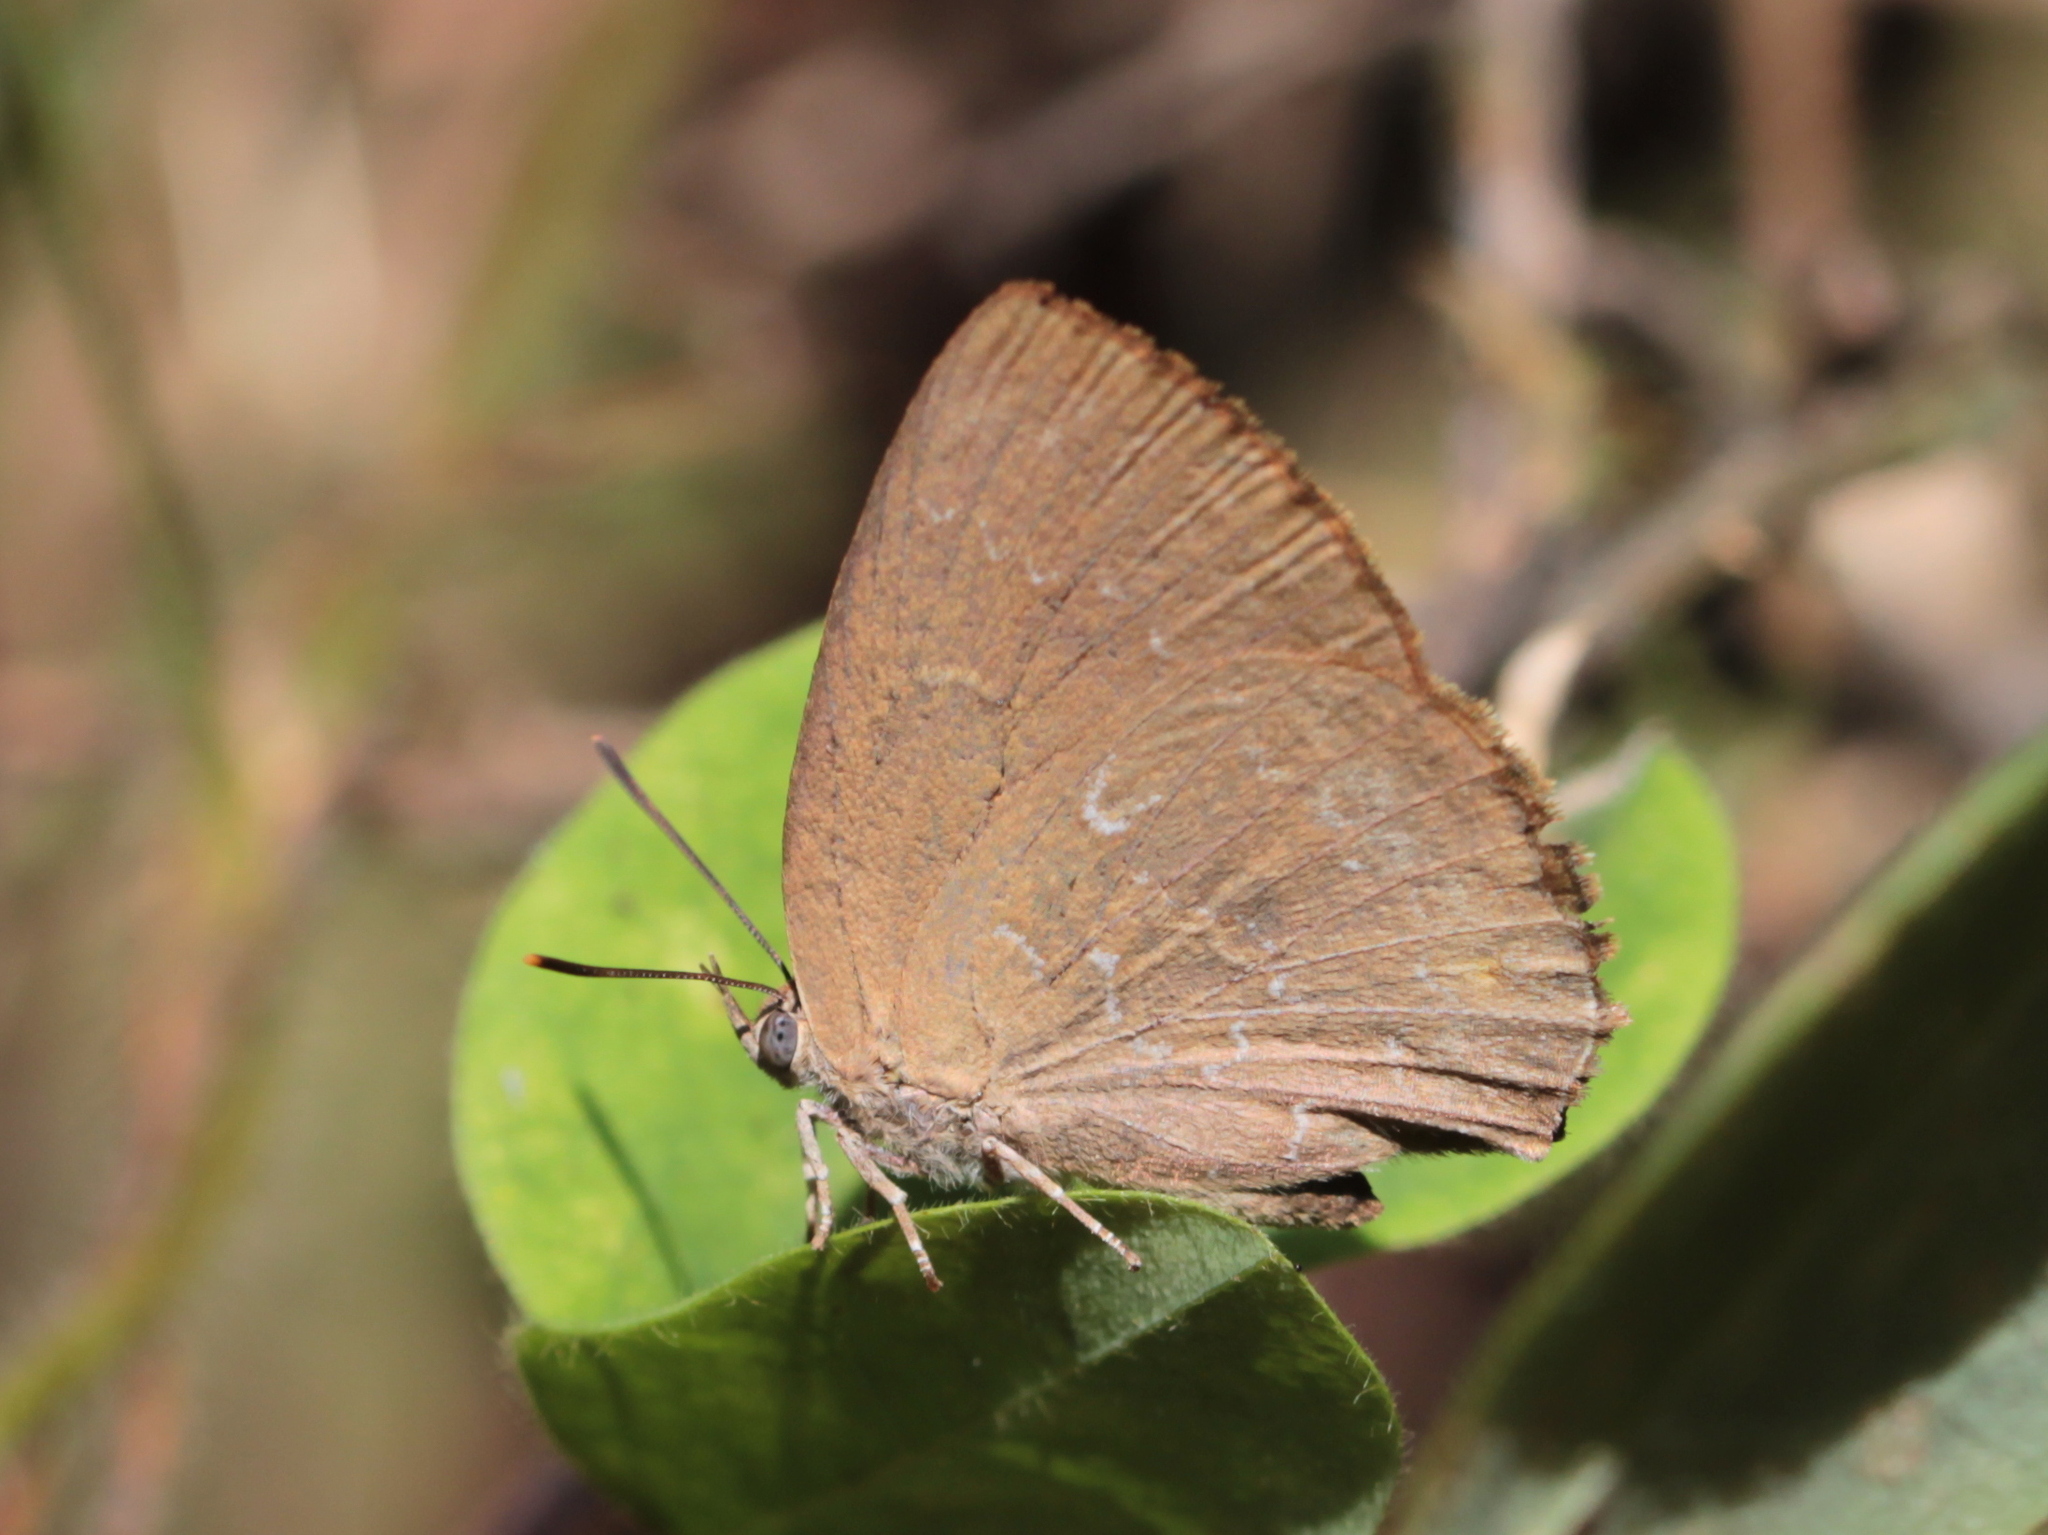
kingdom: Animalia
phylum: Arthropoda
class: Insecta
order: Lepidoptera
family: Lycaenidae
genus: Zinaspa
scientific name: Zinaspa todara
